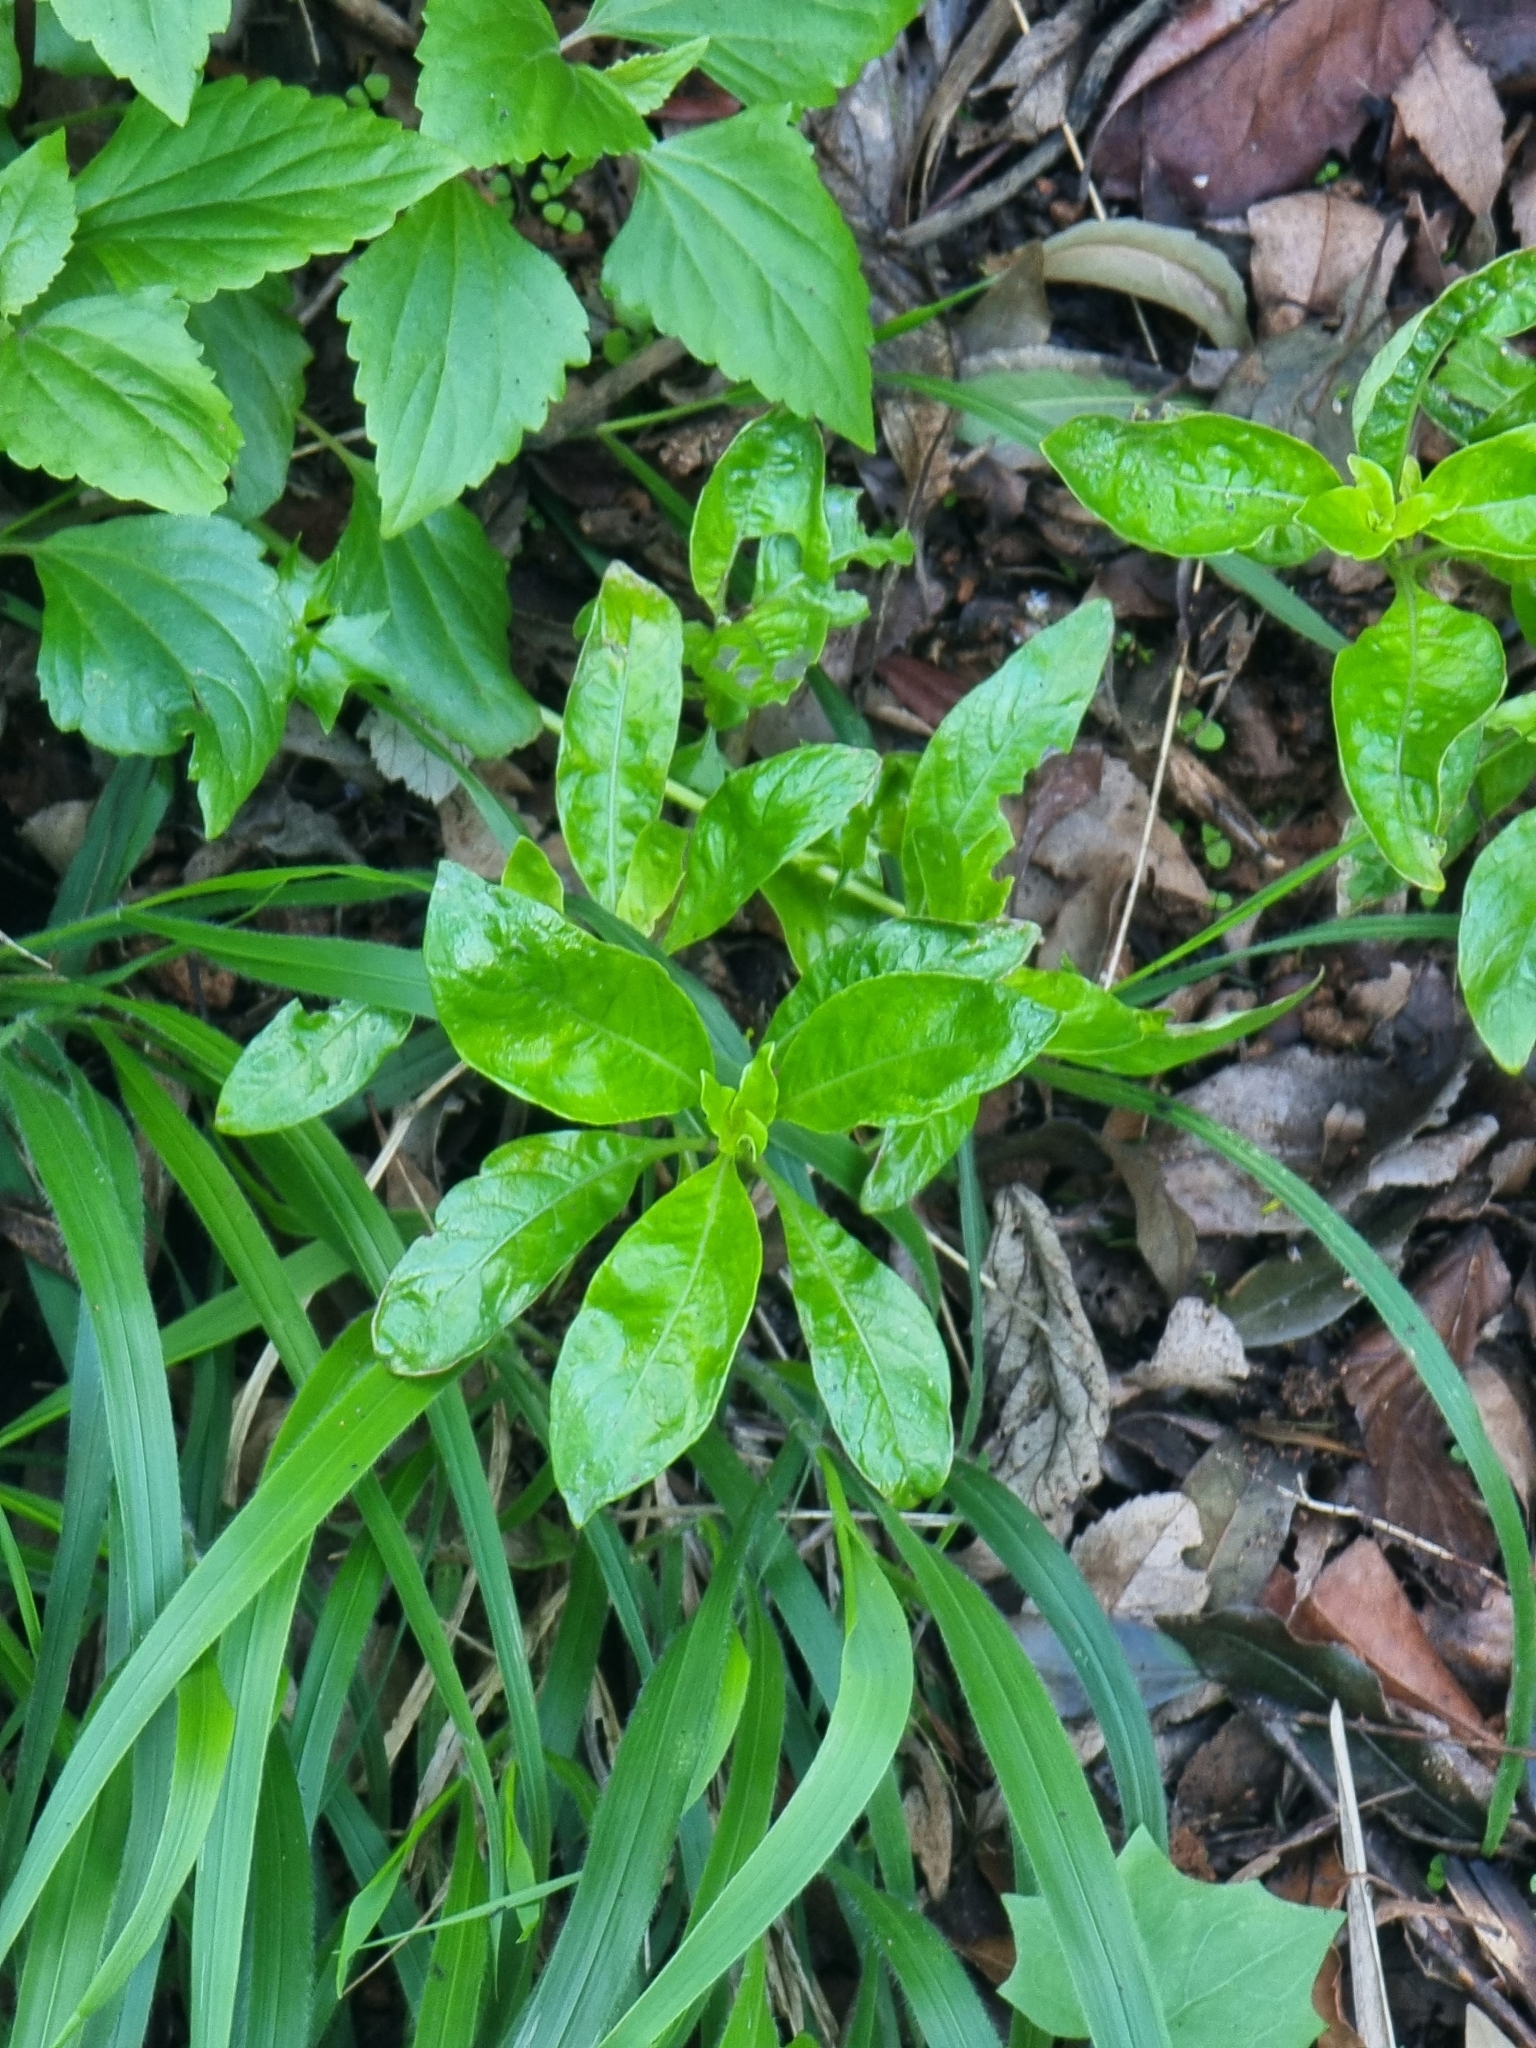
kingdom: Plantae
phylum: Tracheophyta
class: Magnoliopsida
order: Gentianales
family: Rubiaceae
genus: Phyllis
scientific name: Phyllis nobla
